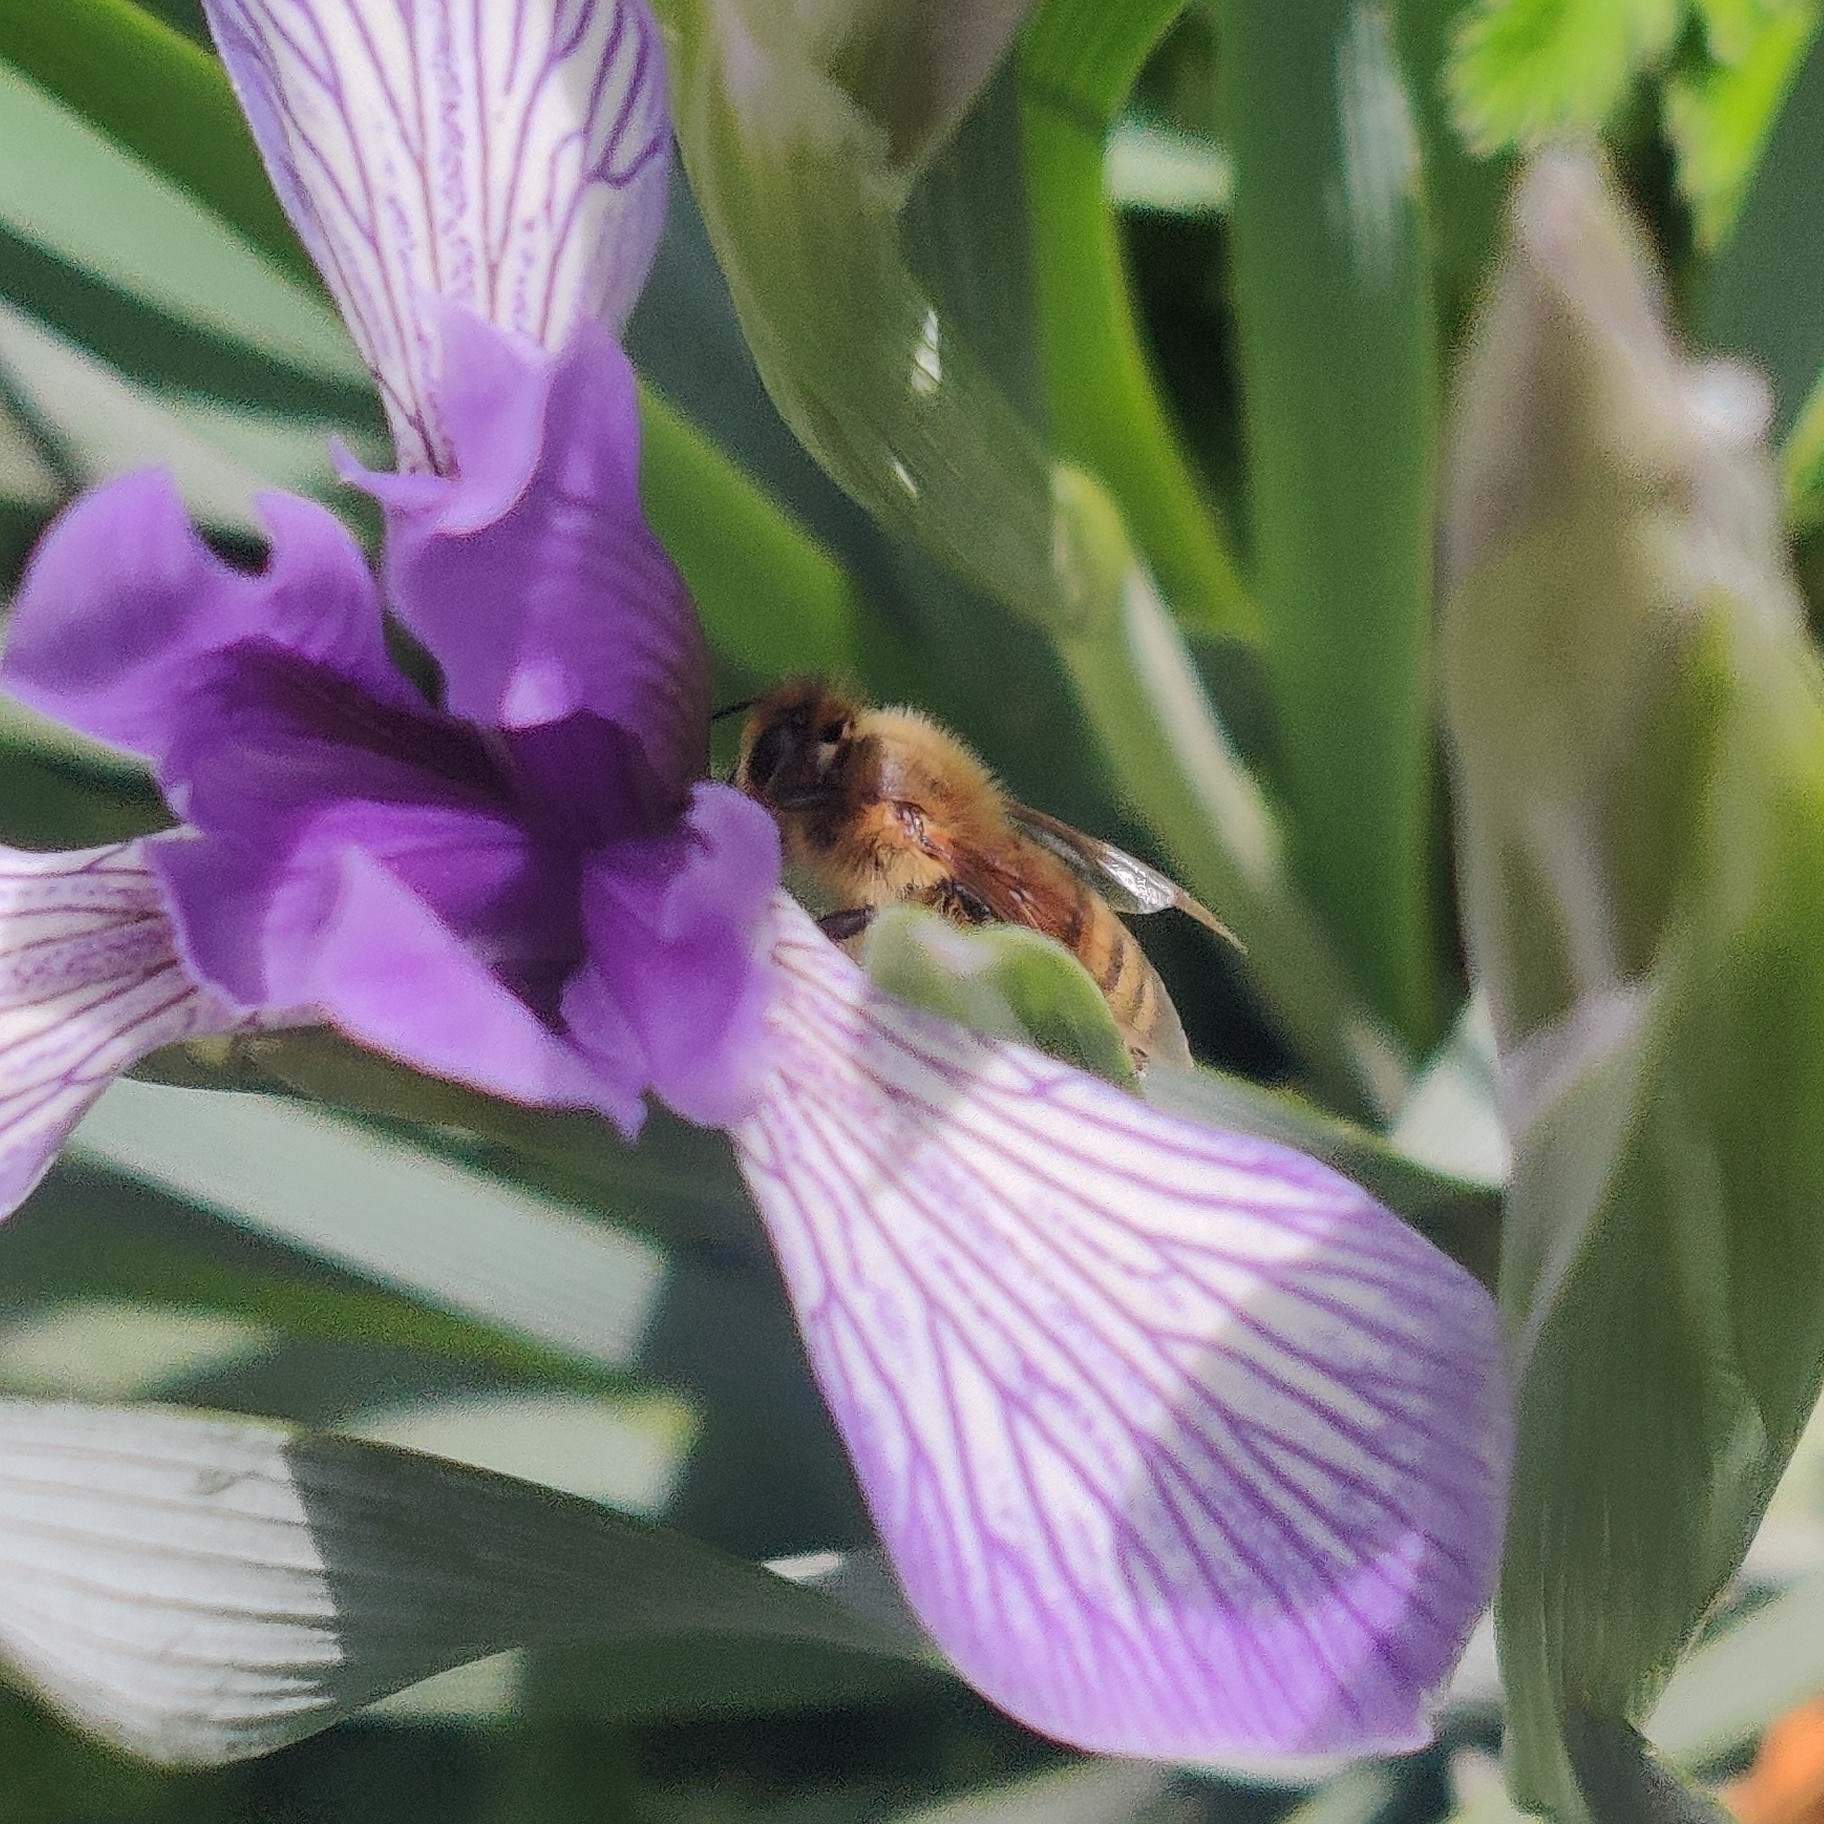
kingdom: Animalia
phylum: Arthropoda
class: Insecta
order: Hymenoptera
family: Apidae
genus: Apis
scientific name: Apis mellifera
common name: Honey bee
